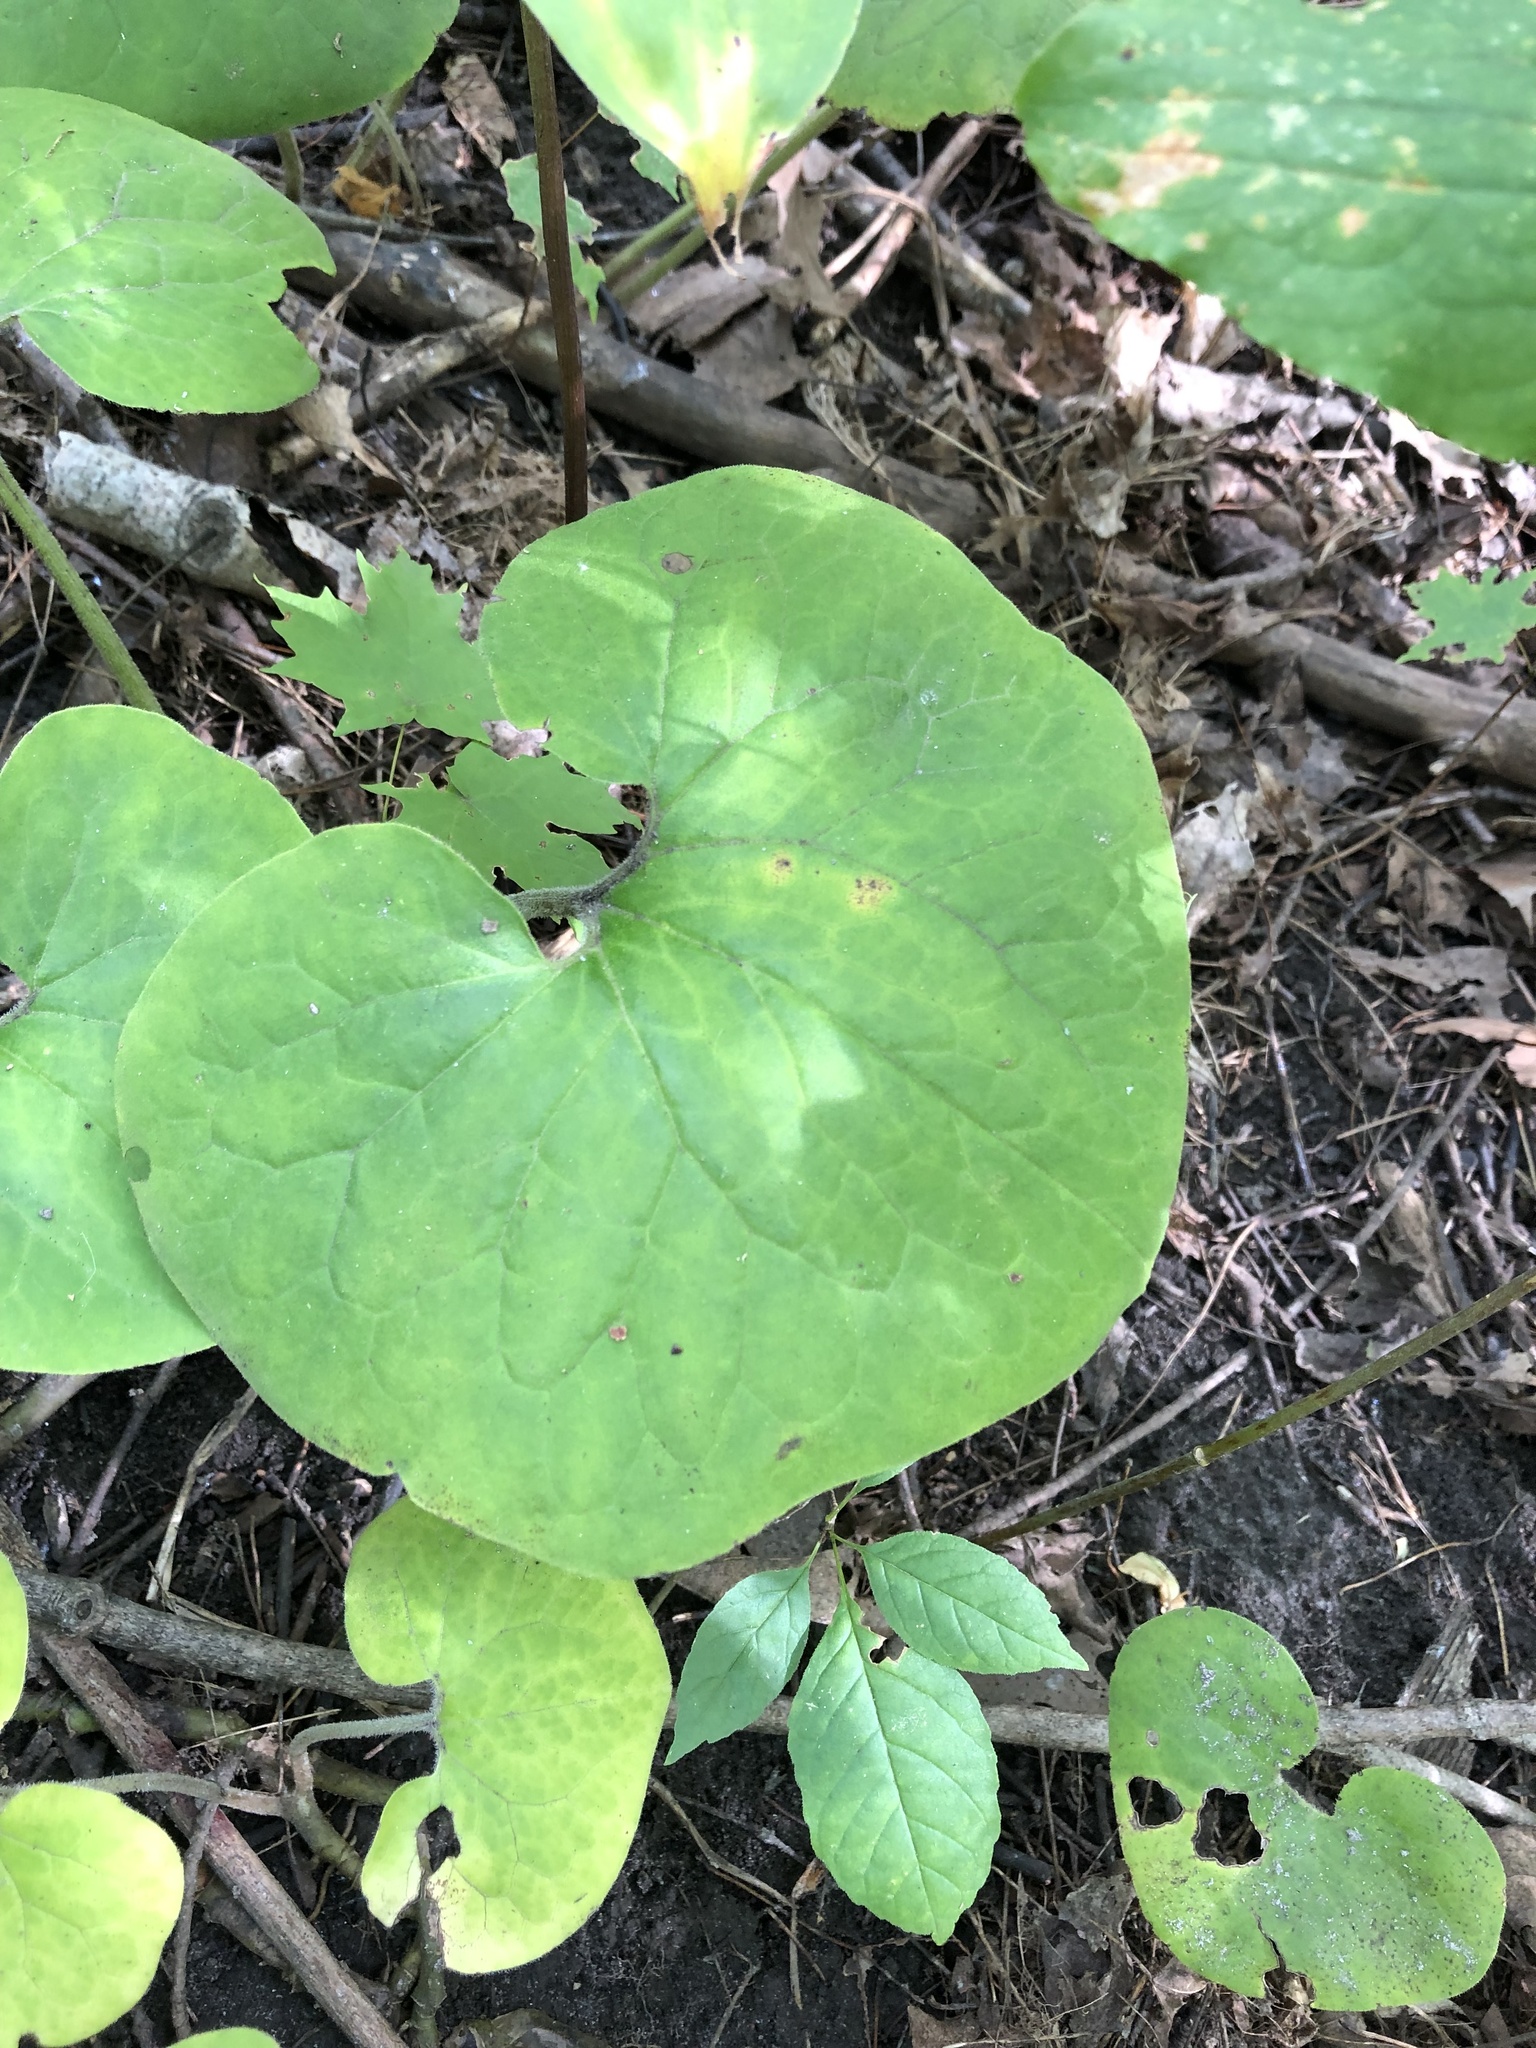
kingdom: Plantae
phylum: Tracheophyta
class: Magnoliopsida
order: Piperales
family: Aristolochiaceae
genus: Asarum
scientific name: Asarum canadense
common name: Wild ginger
